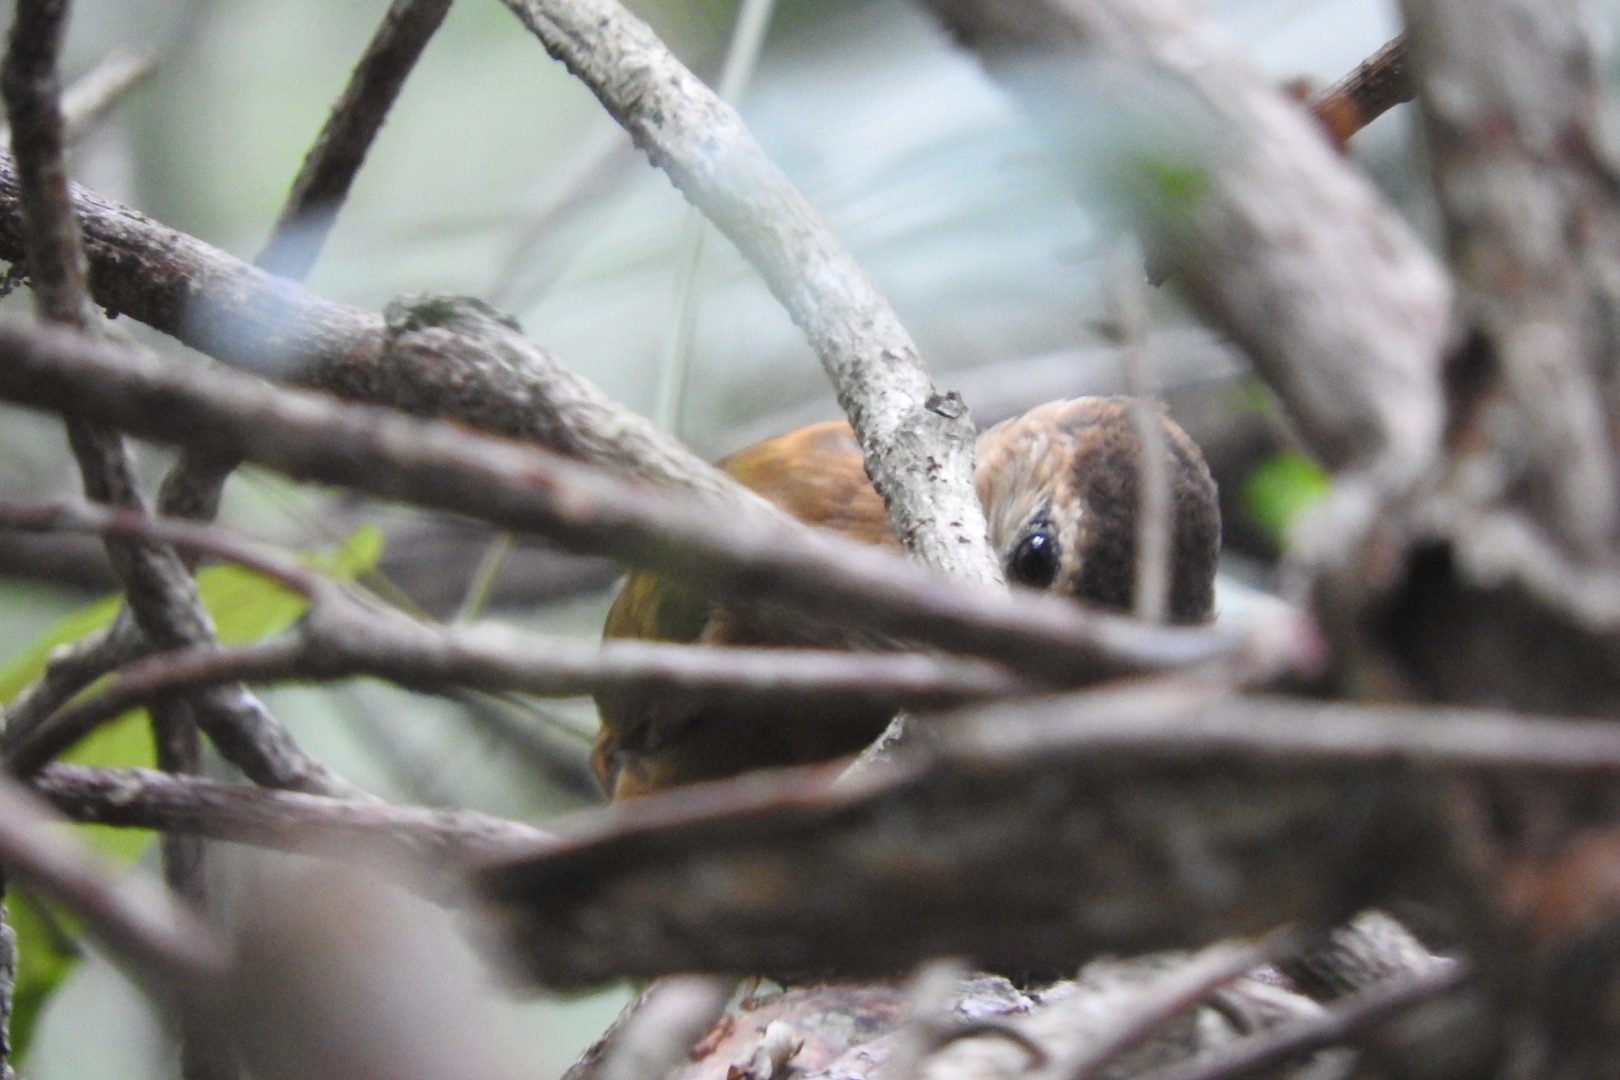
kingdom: Animalia
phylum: Chordata
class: Aves
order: Piciformes
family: Picidae
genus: Leuconotopicus
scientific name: Leuconotopicus fumigatus
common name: Smoky-brown woodpecker
